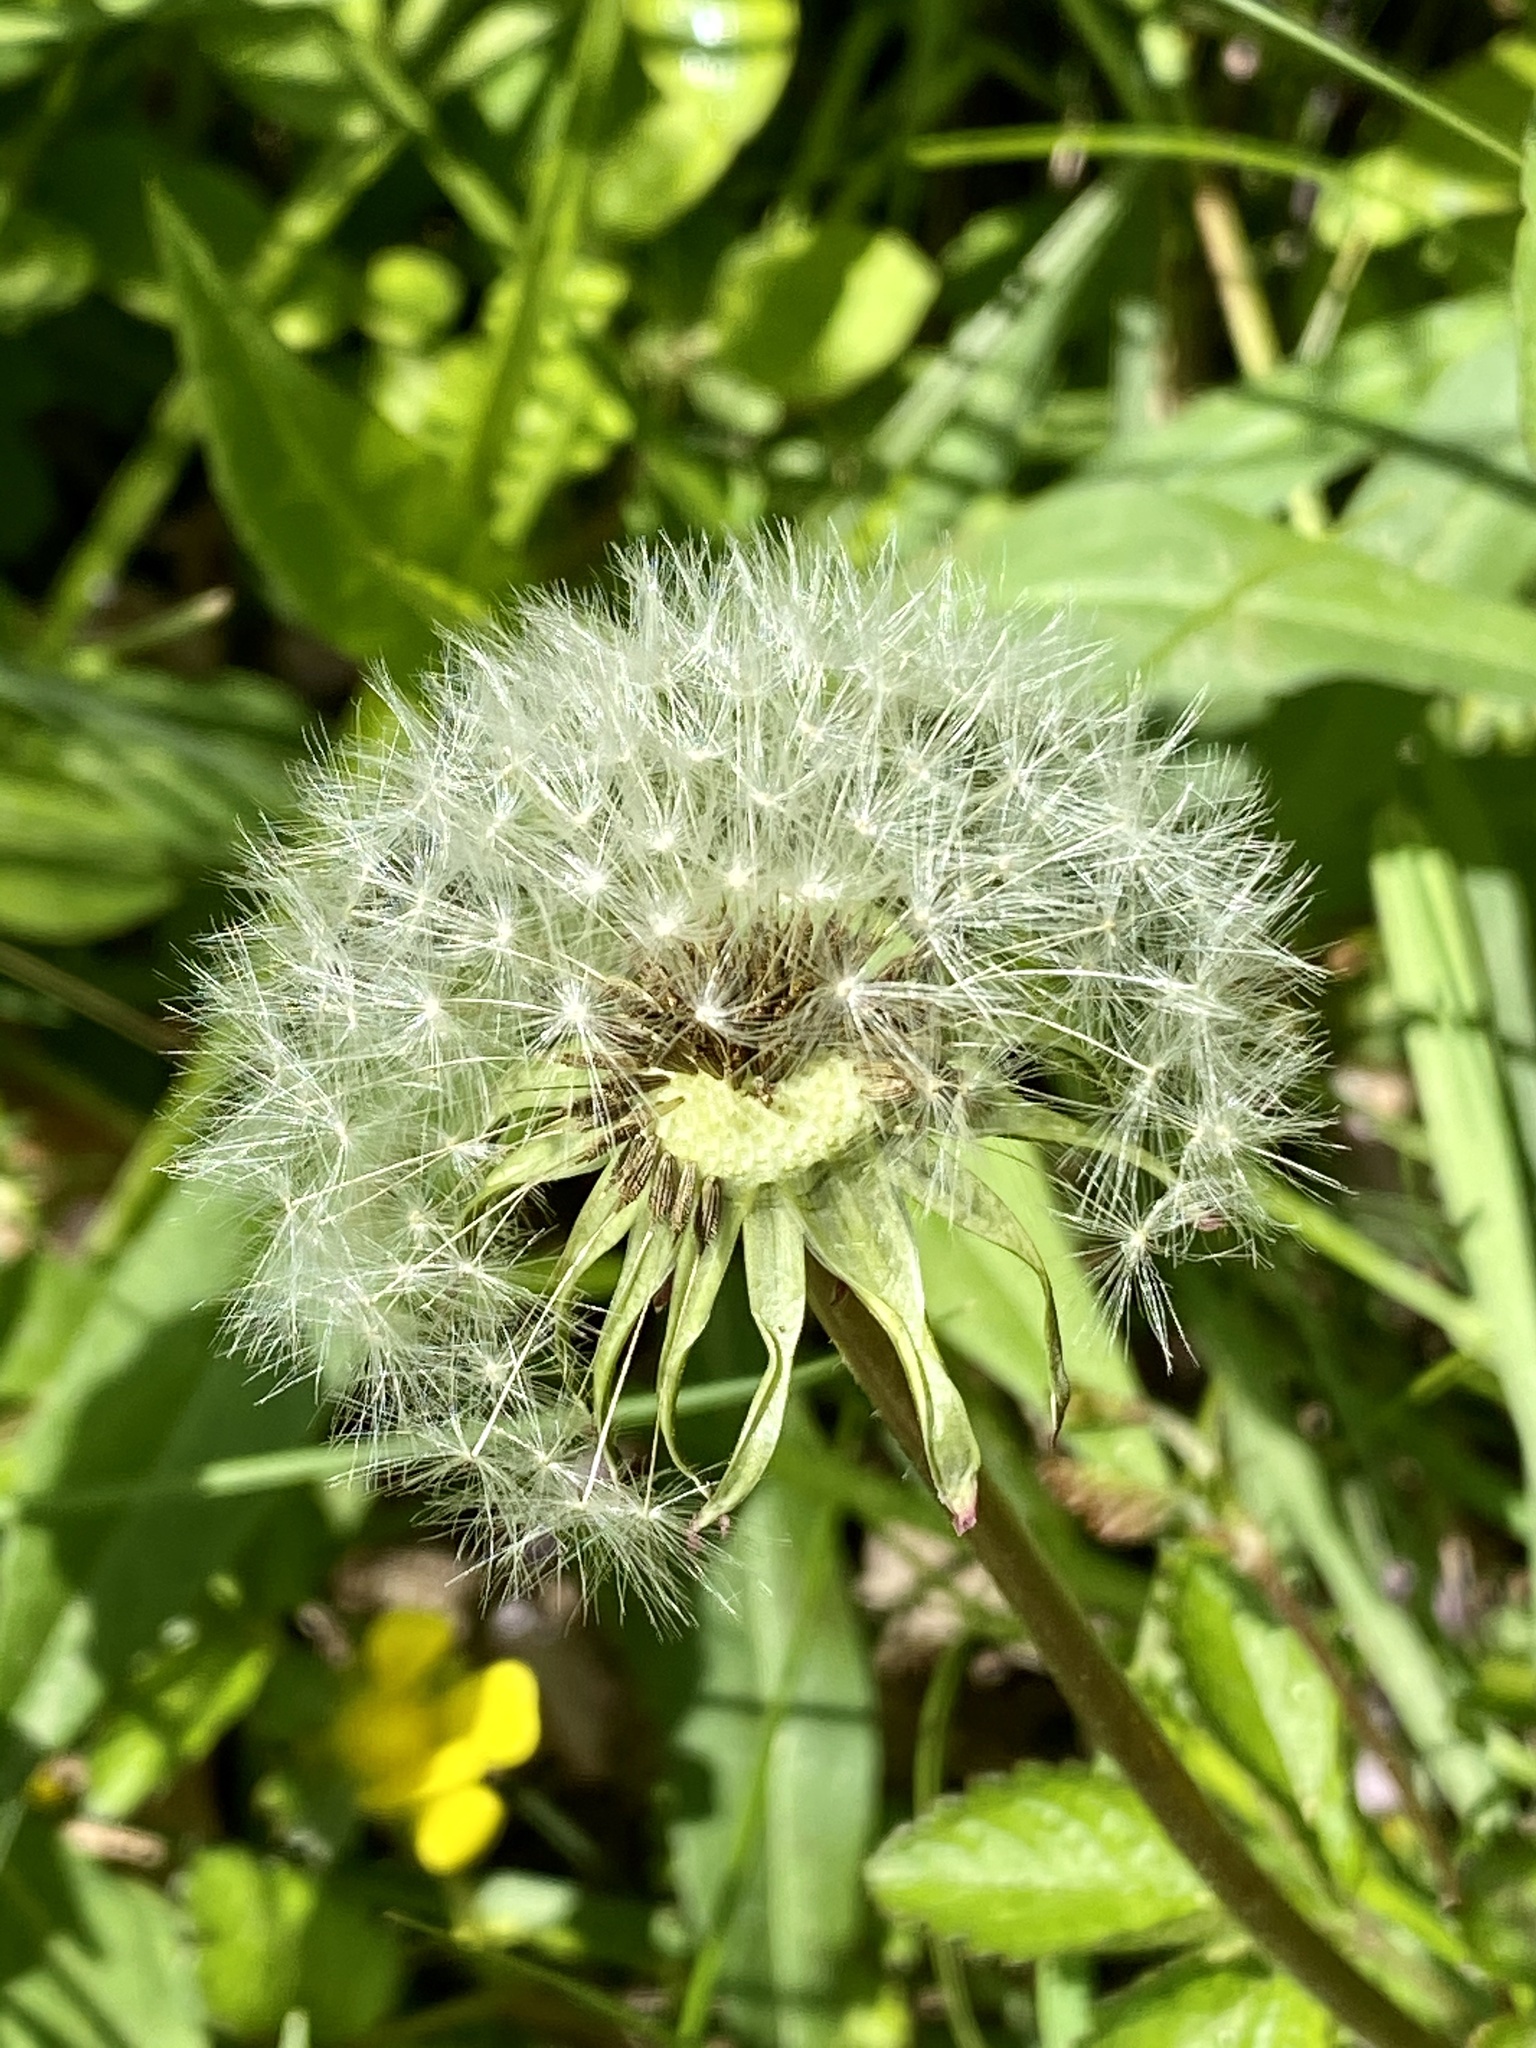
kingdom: Plantae
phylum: Tracheophyta
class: Magnoliopsida
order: Asterales
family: Asteraceae
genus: Taraxacum
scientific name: Taraxacum officinale
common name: Common dandelion
